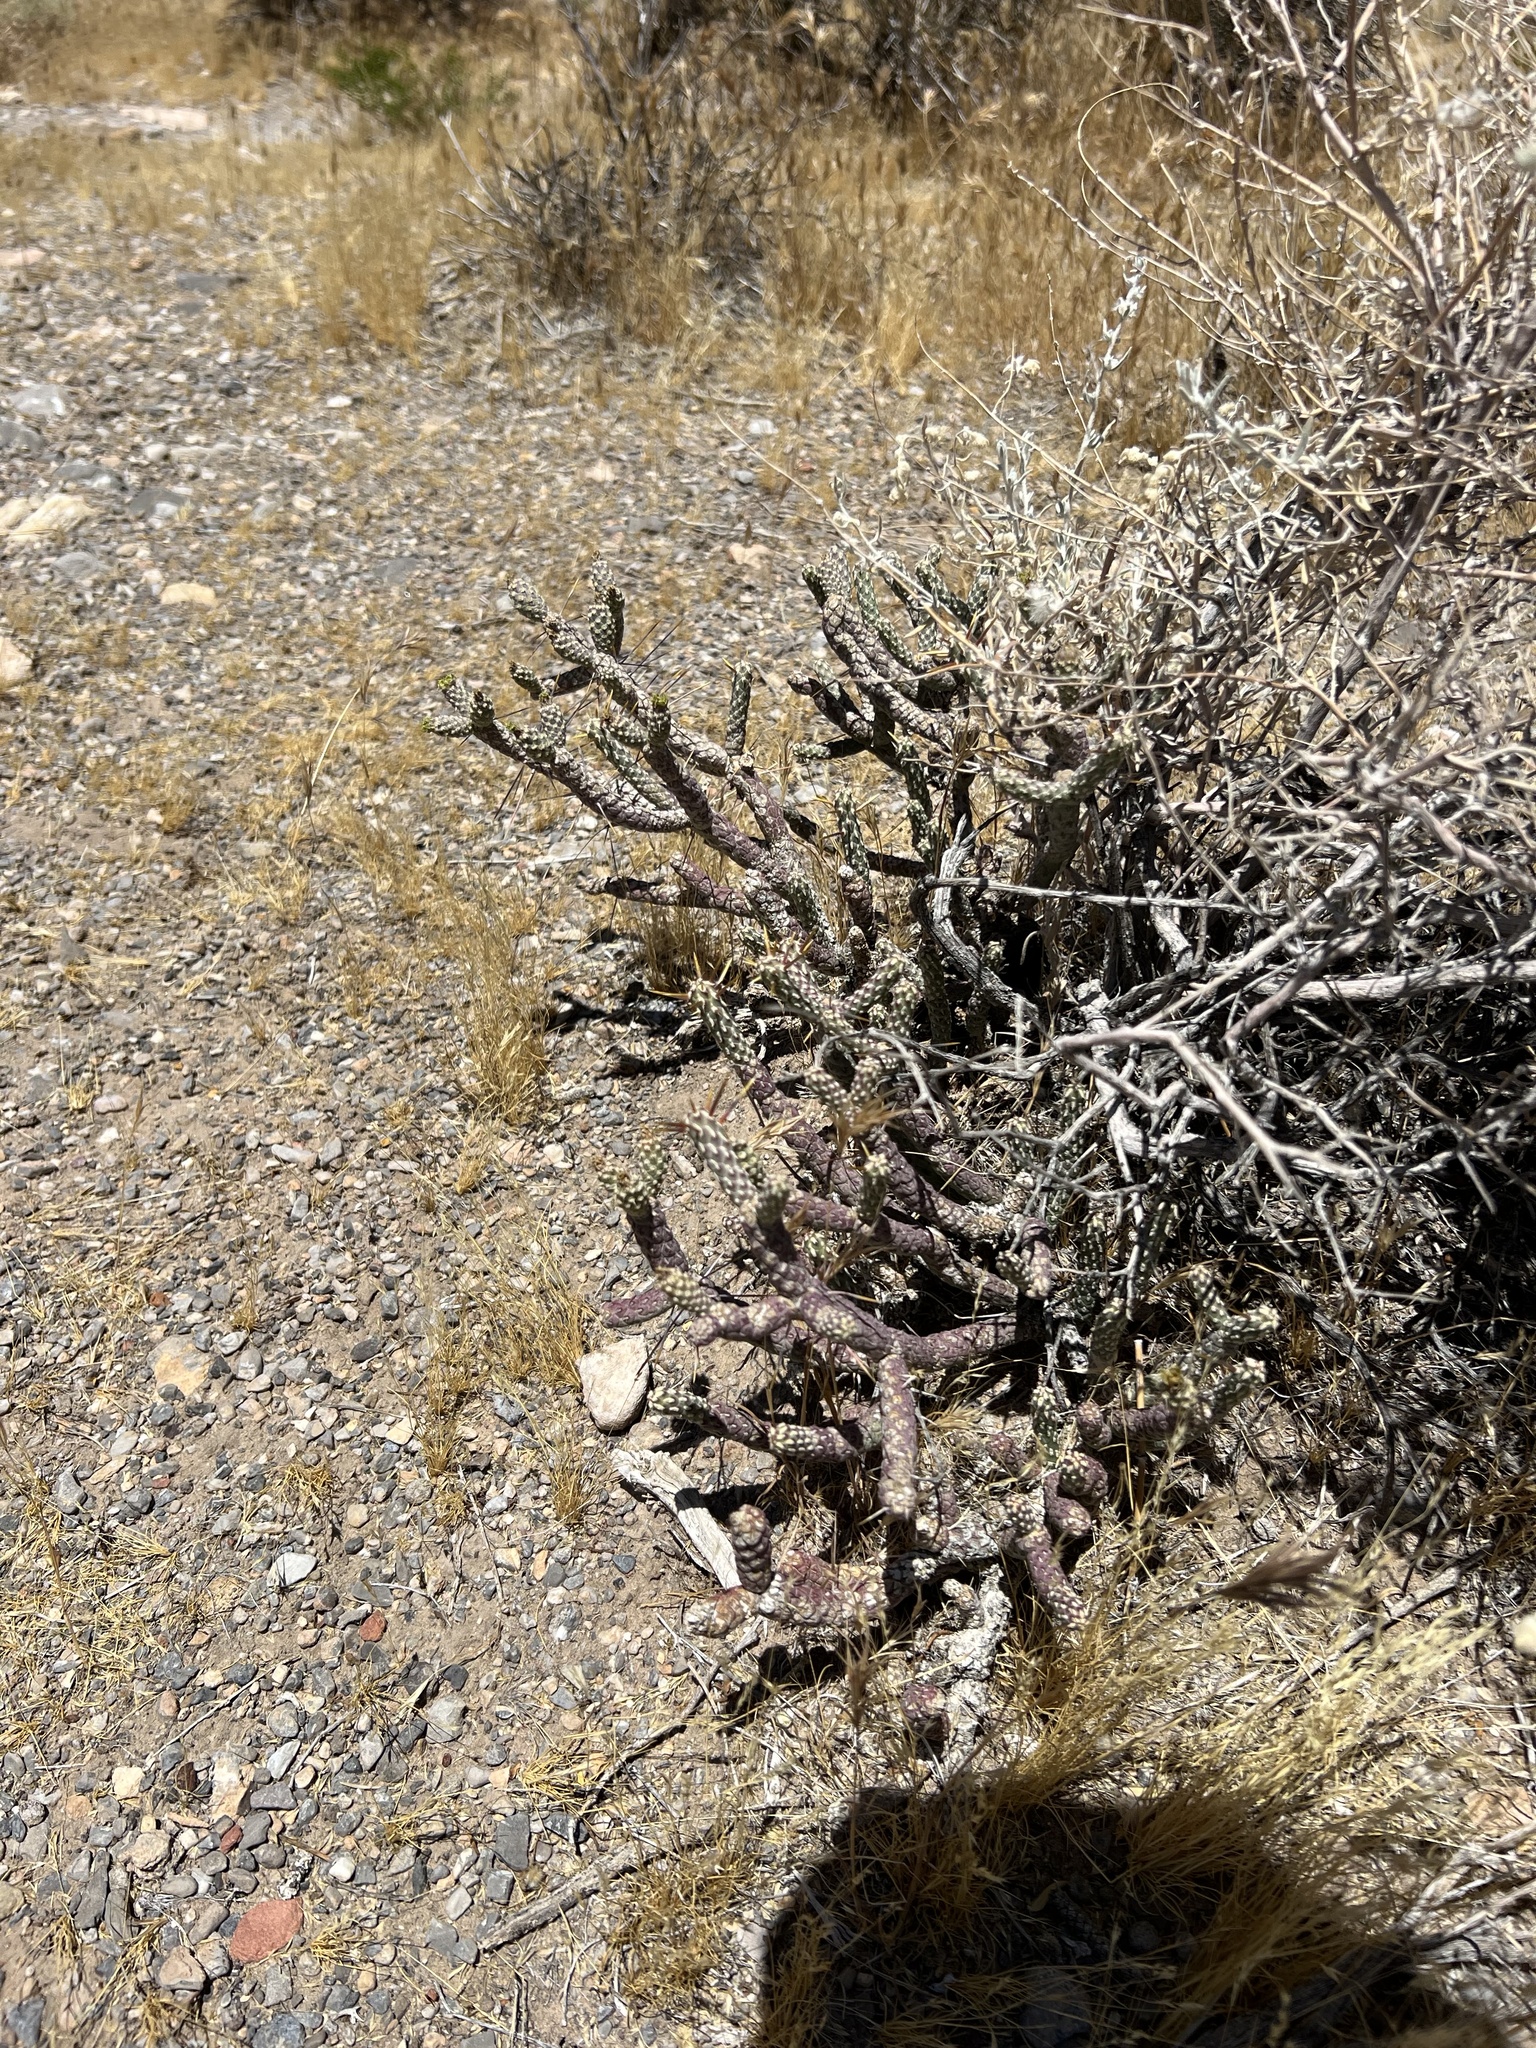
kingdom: Plantae
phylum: Tracheophyta
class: Magnoliopsida
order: Caryophyllales
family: Cactaceae
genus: Cylindropuntia
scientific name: Cylindropuntia ramosissima
